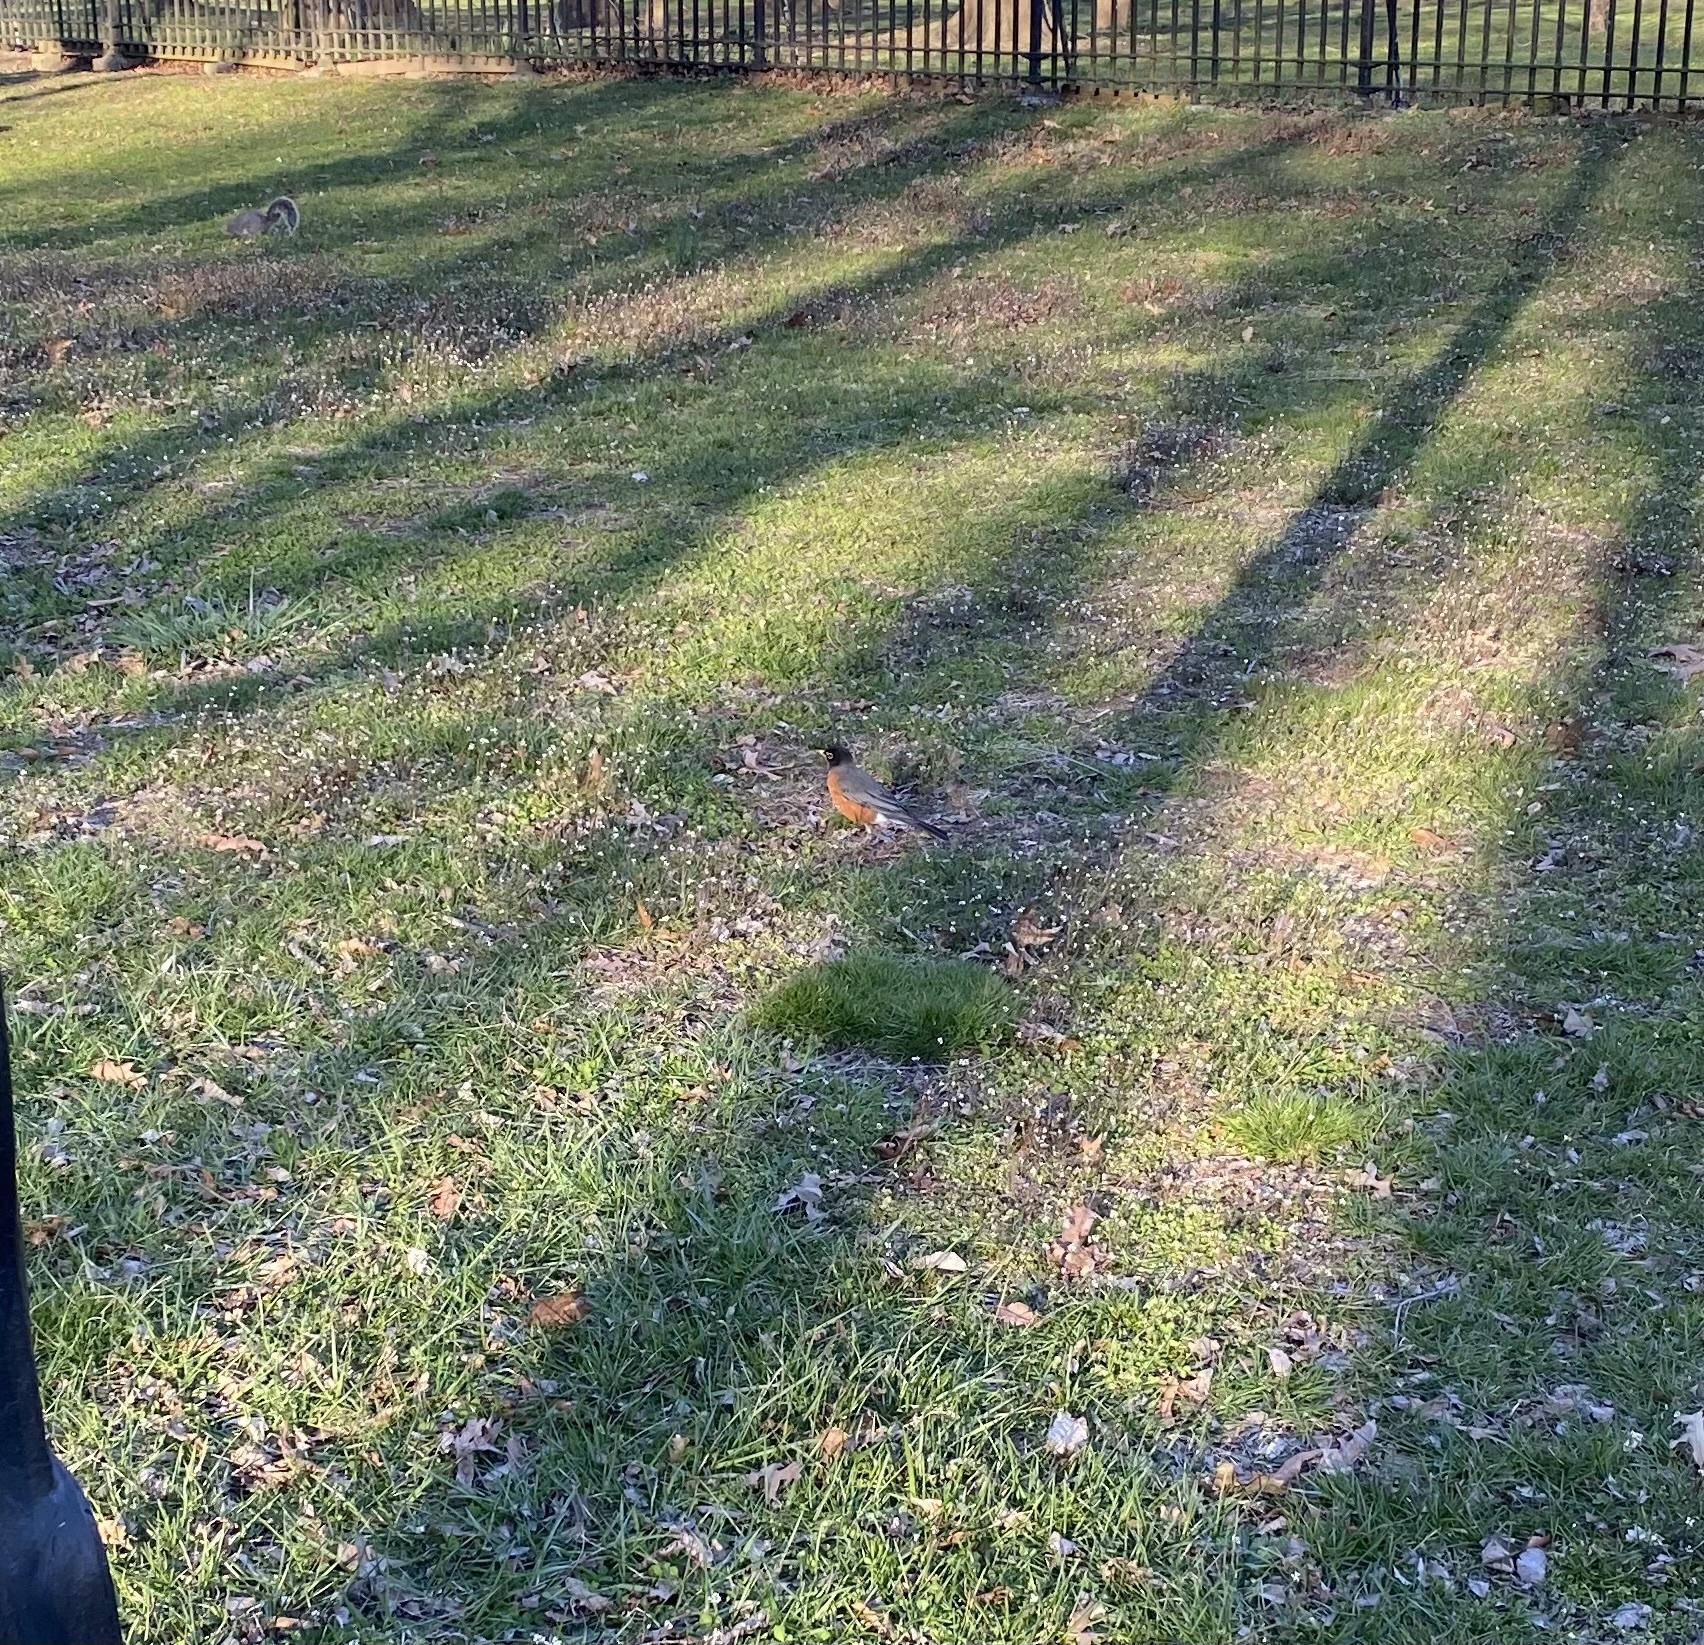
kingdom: Animalia
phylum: Chordata
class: Aves
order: Passeriformes
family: Turdidae
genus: Turdus
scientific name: Turdus migratorius
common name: American robin
